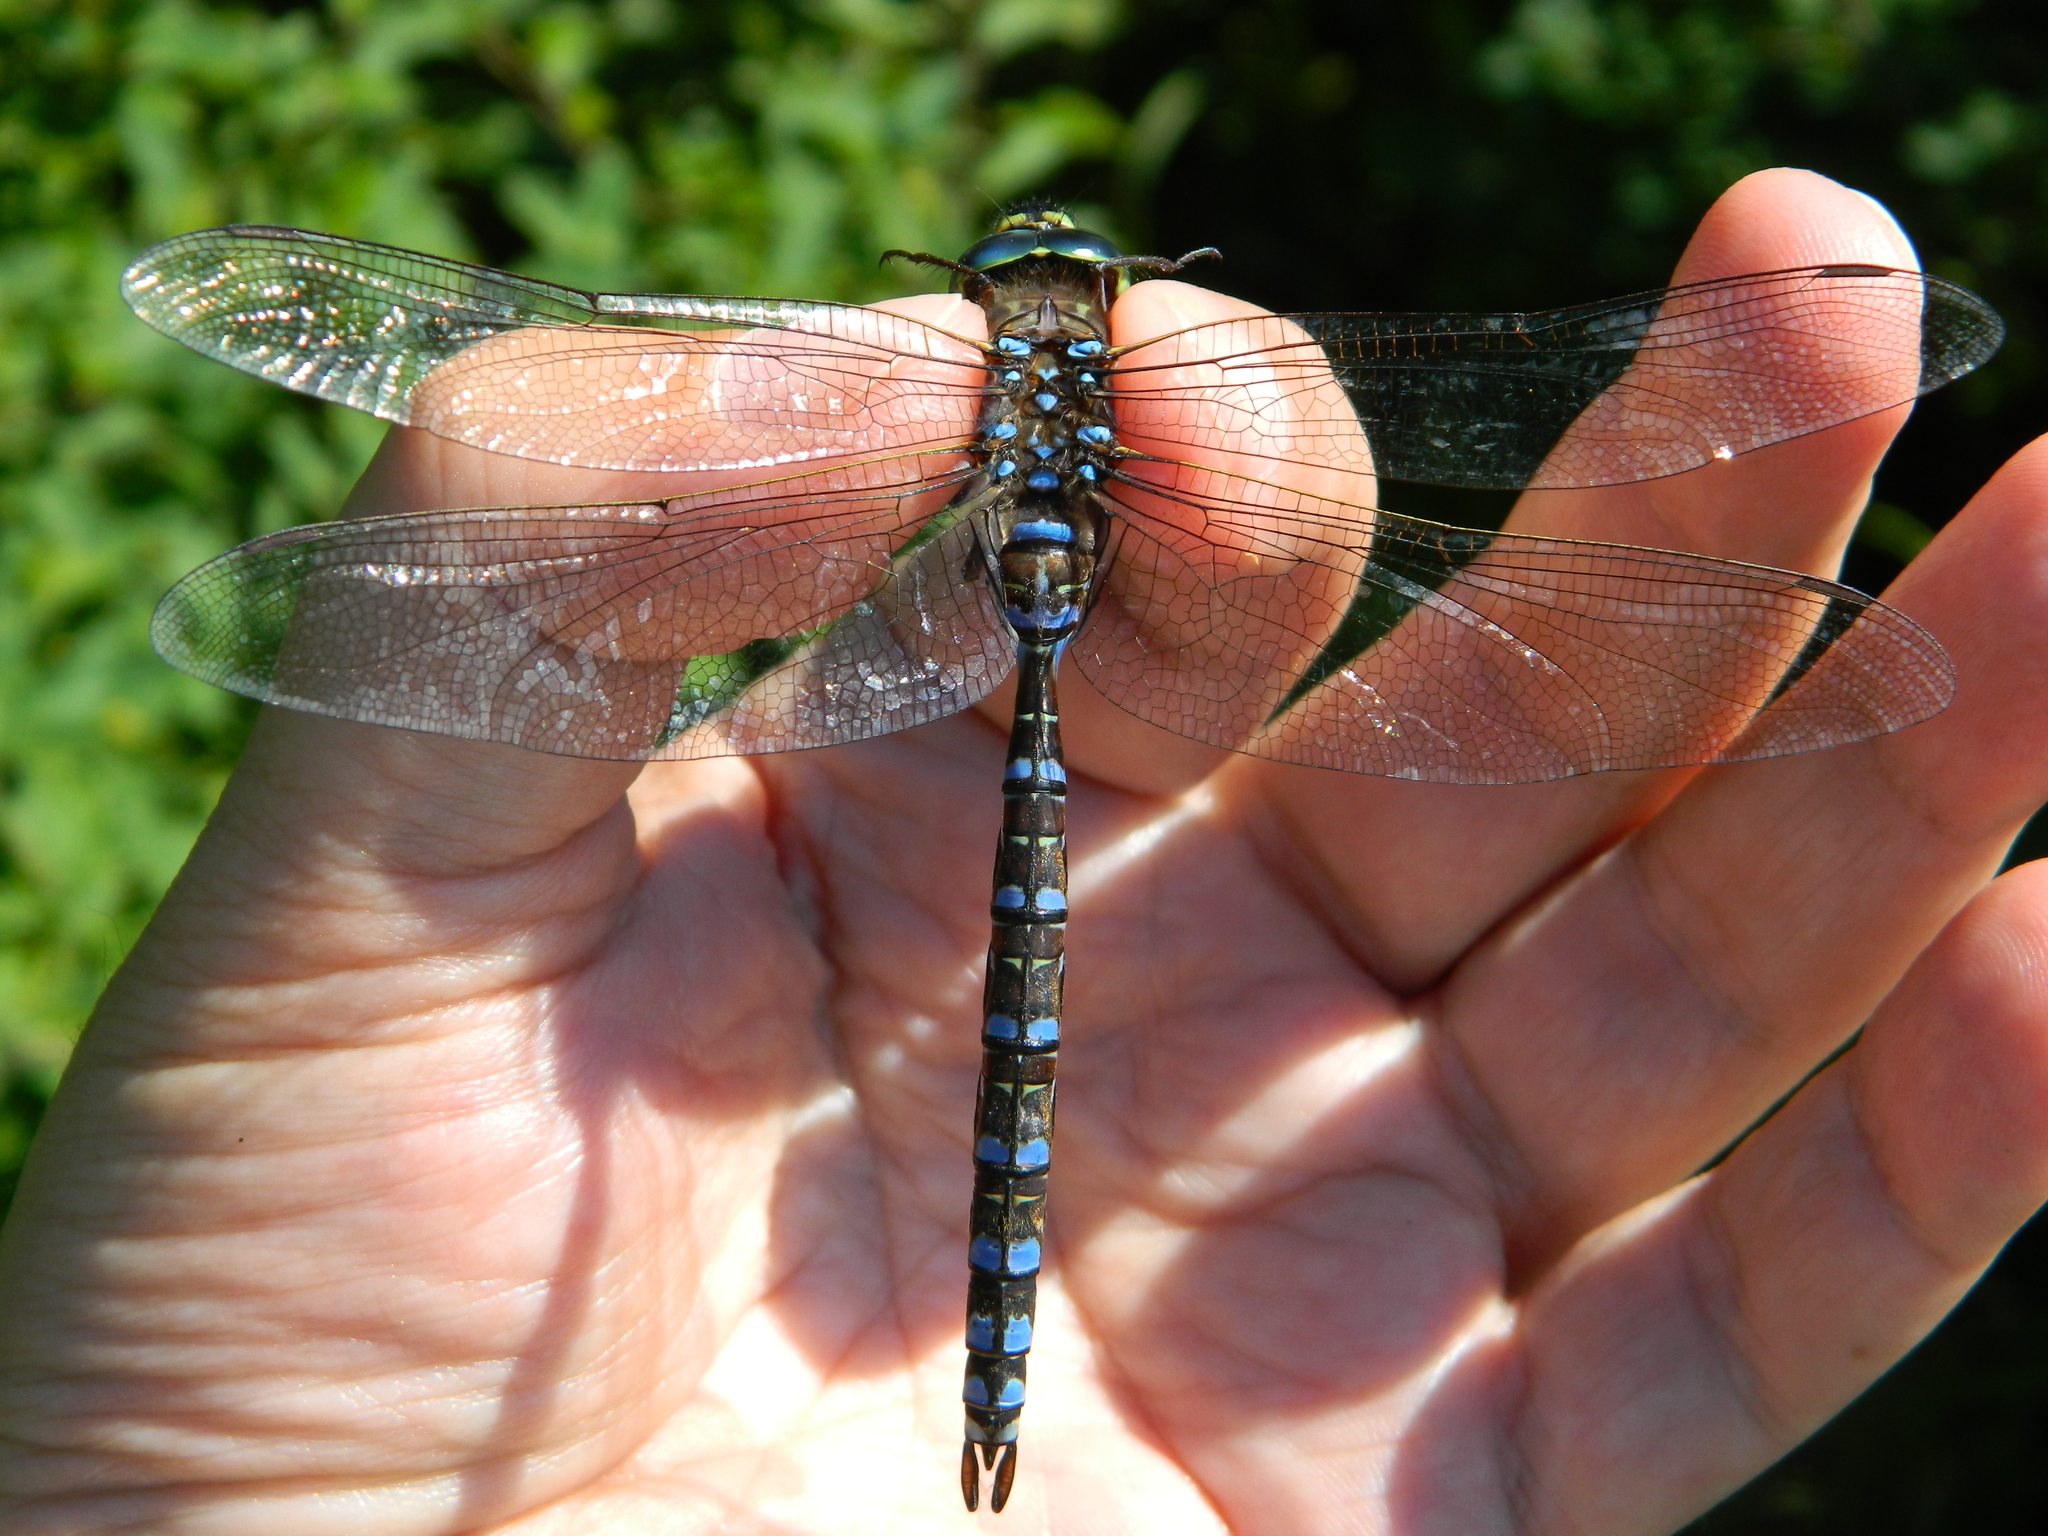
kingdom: Animalia
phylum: Arthropoda
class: Insecta
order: Odonata
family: Aeshnidae
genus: Aeshna
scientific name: Aeshna eremita
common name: Lake darner
